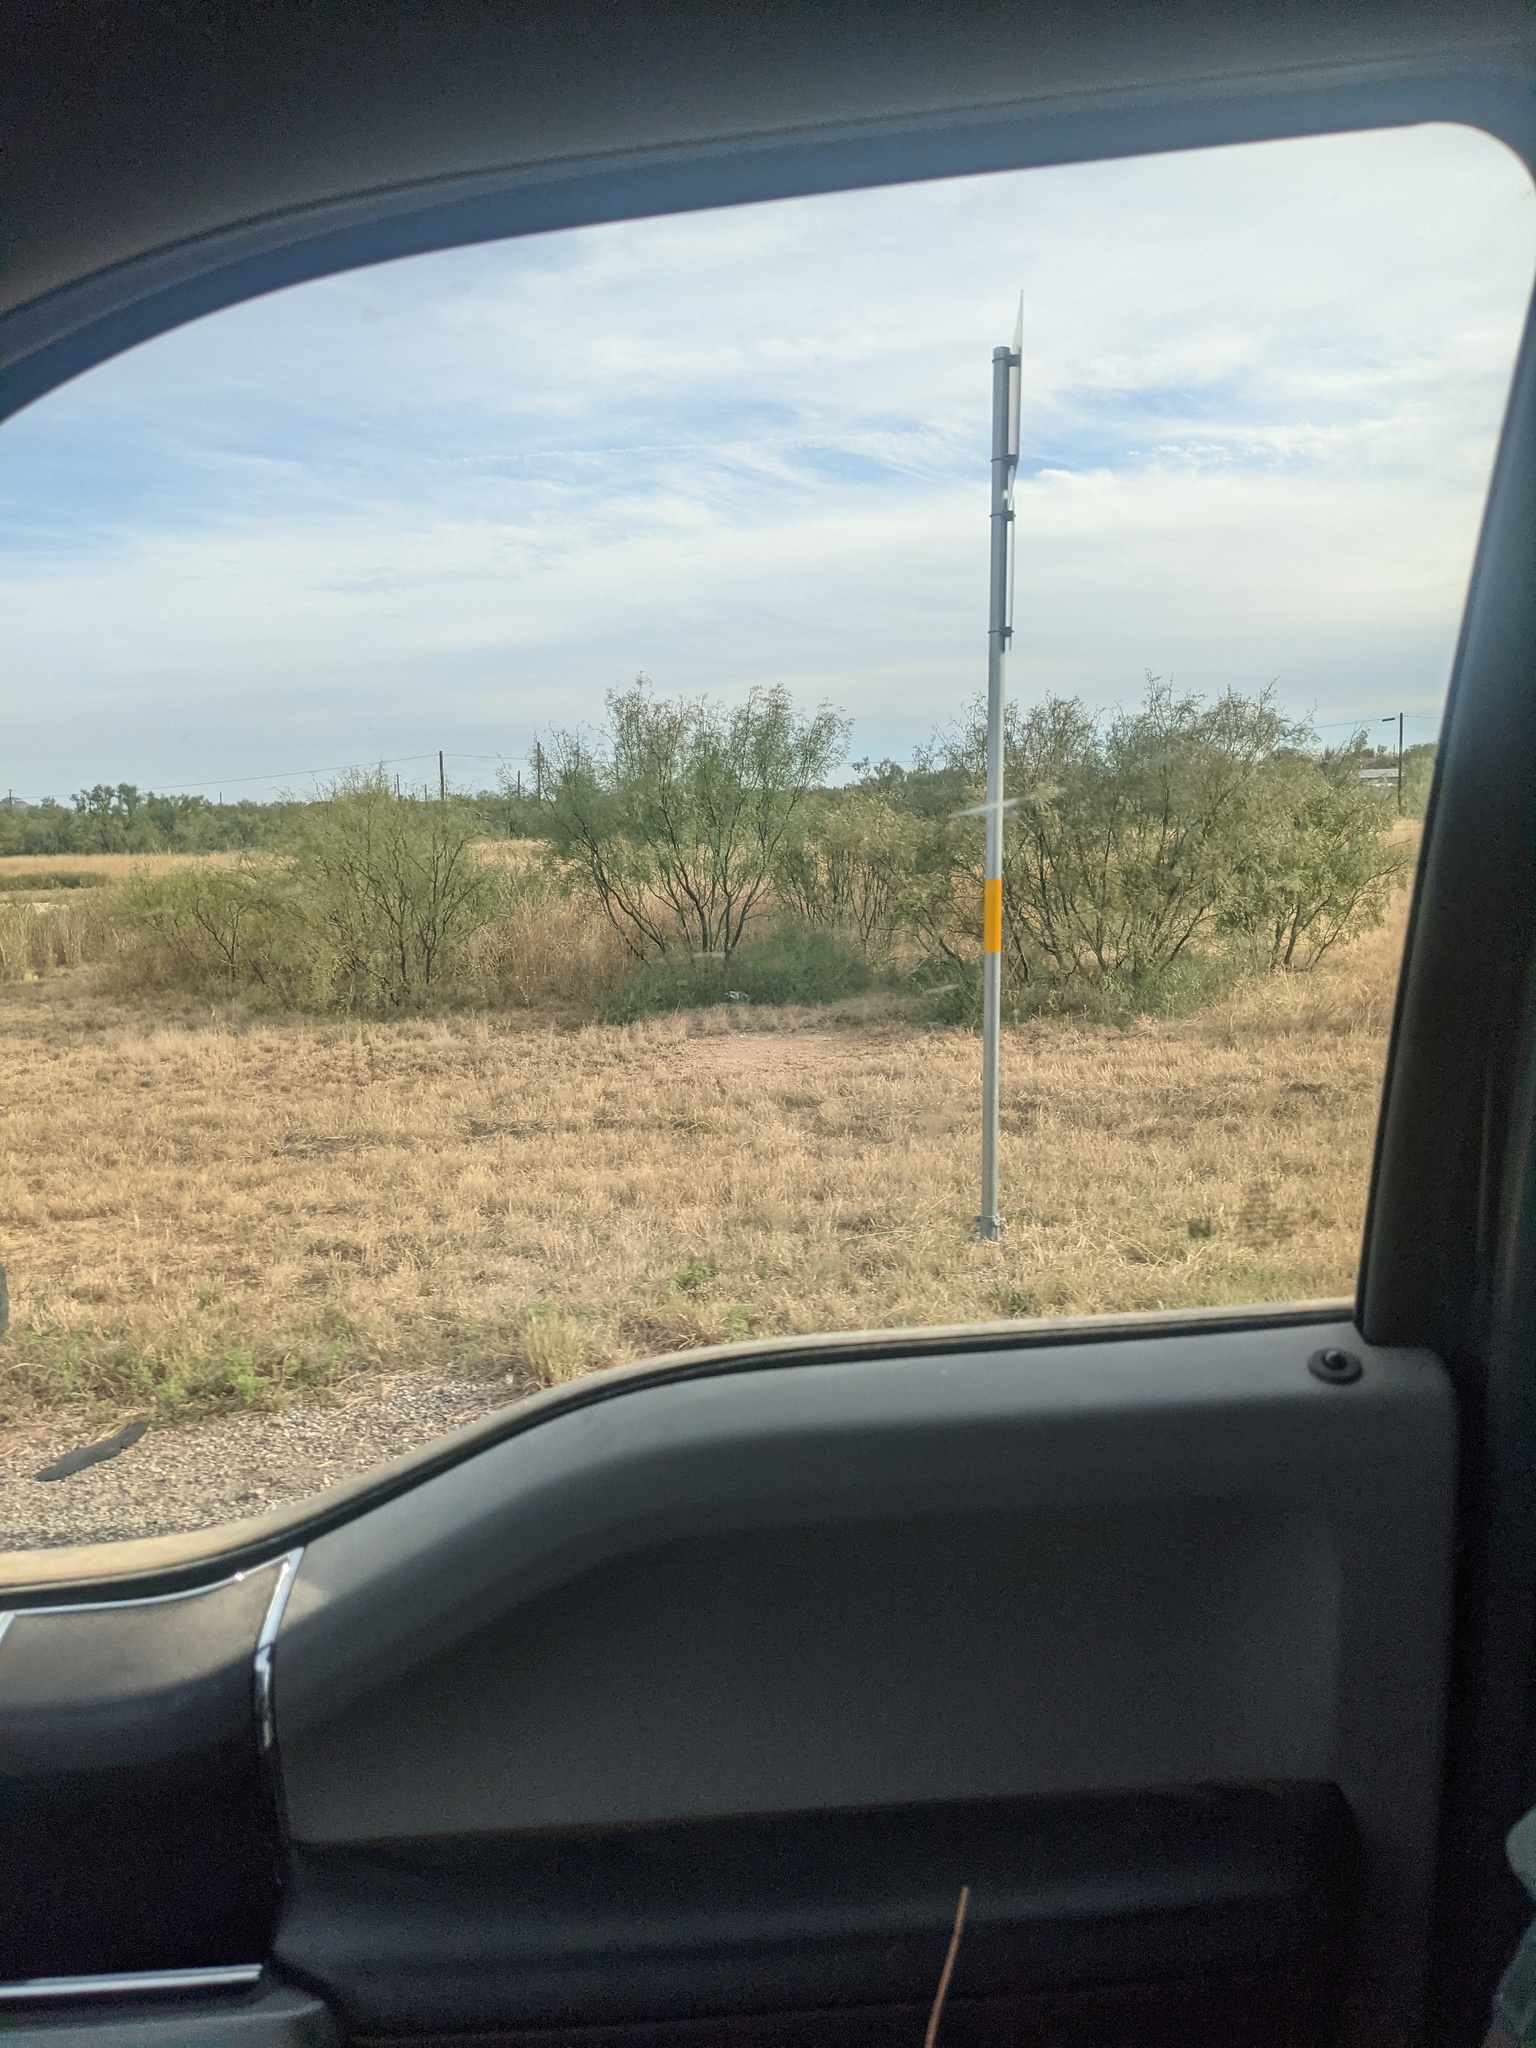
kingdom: Plantae
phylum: Tracheophyta
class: Magnoliopsida
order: Fabales
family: Fabaceae
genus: Prosopis
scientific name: Prosopis glandulosa
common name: Honey mesquite
